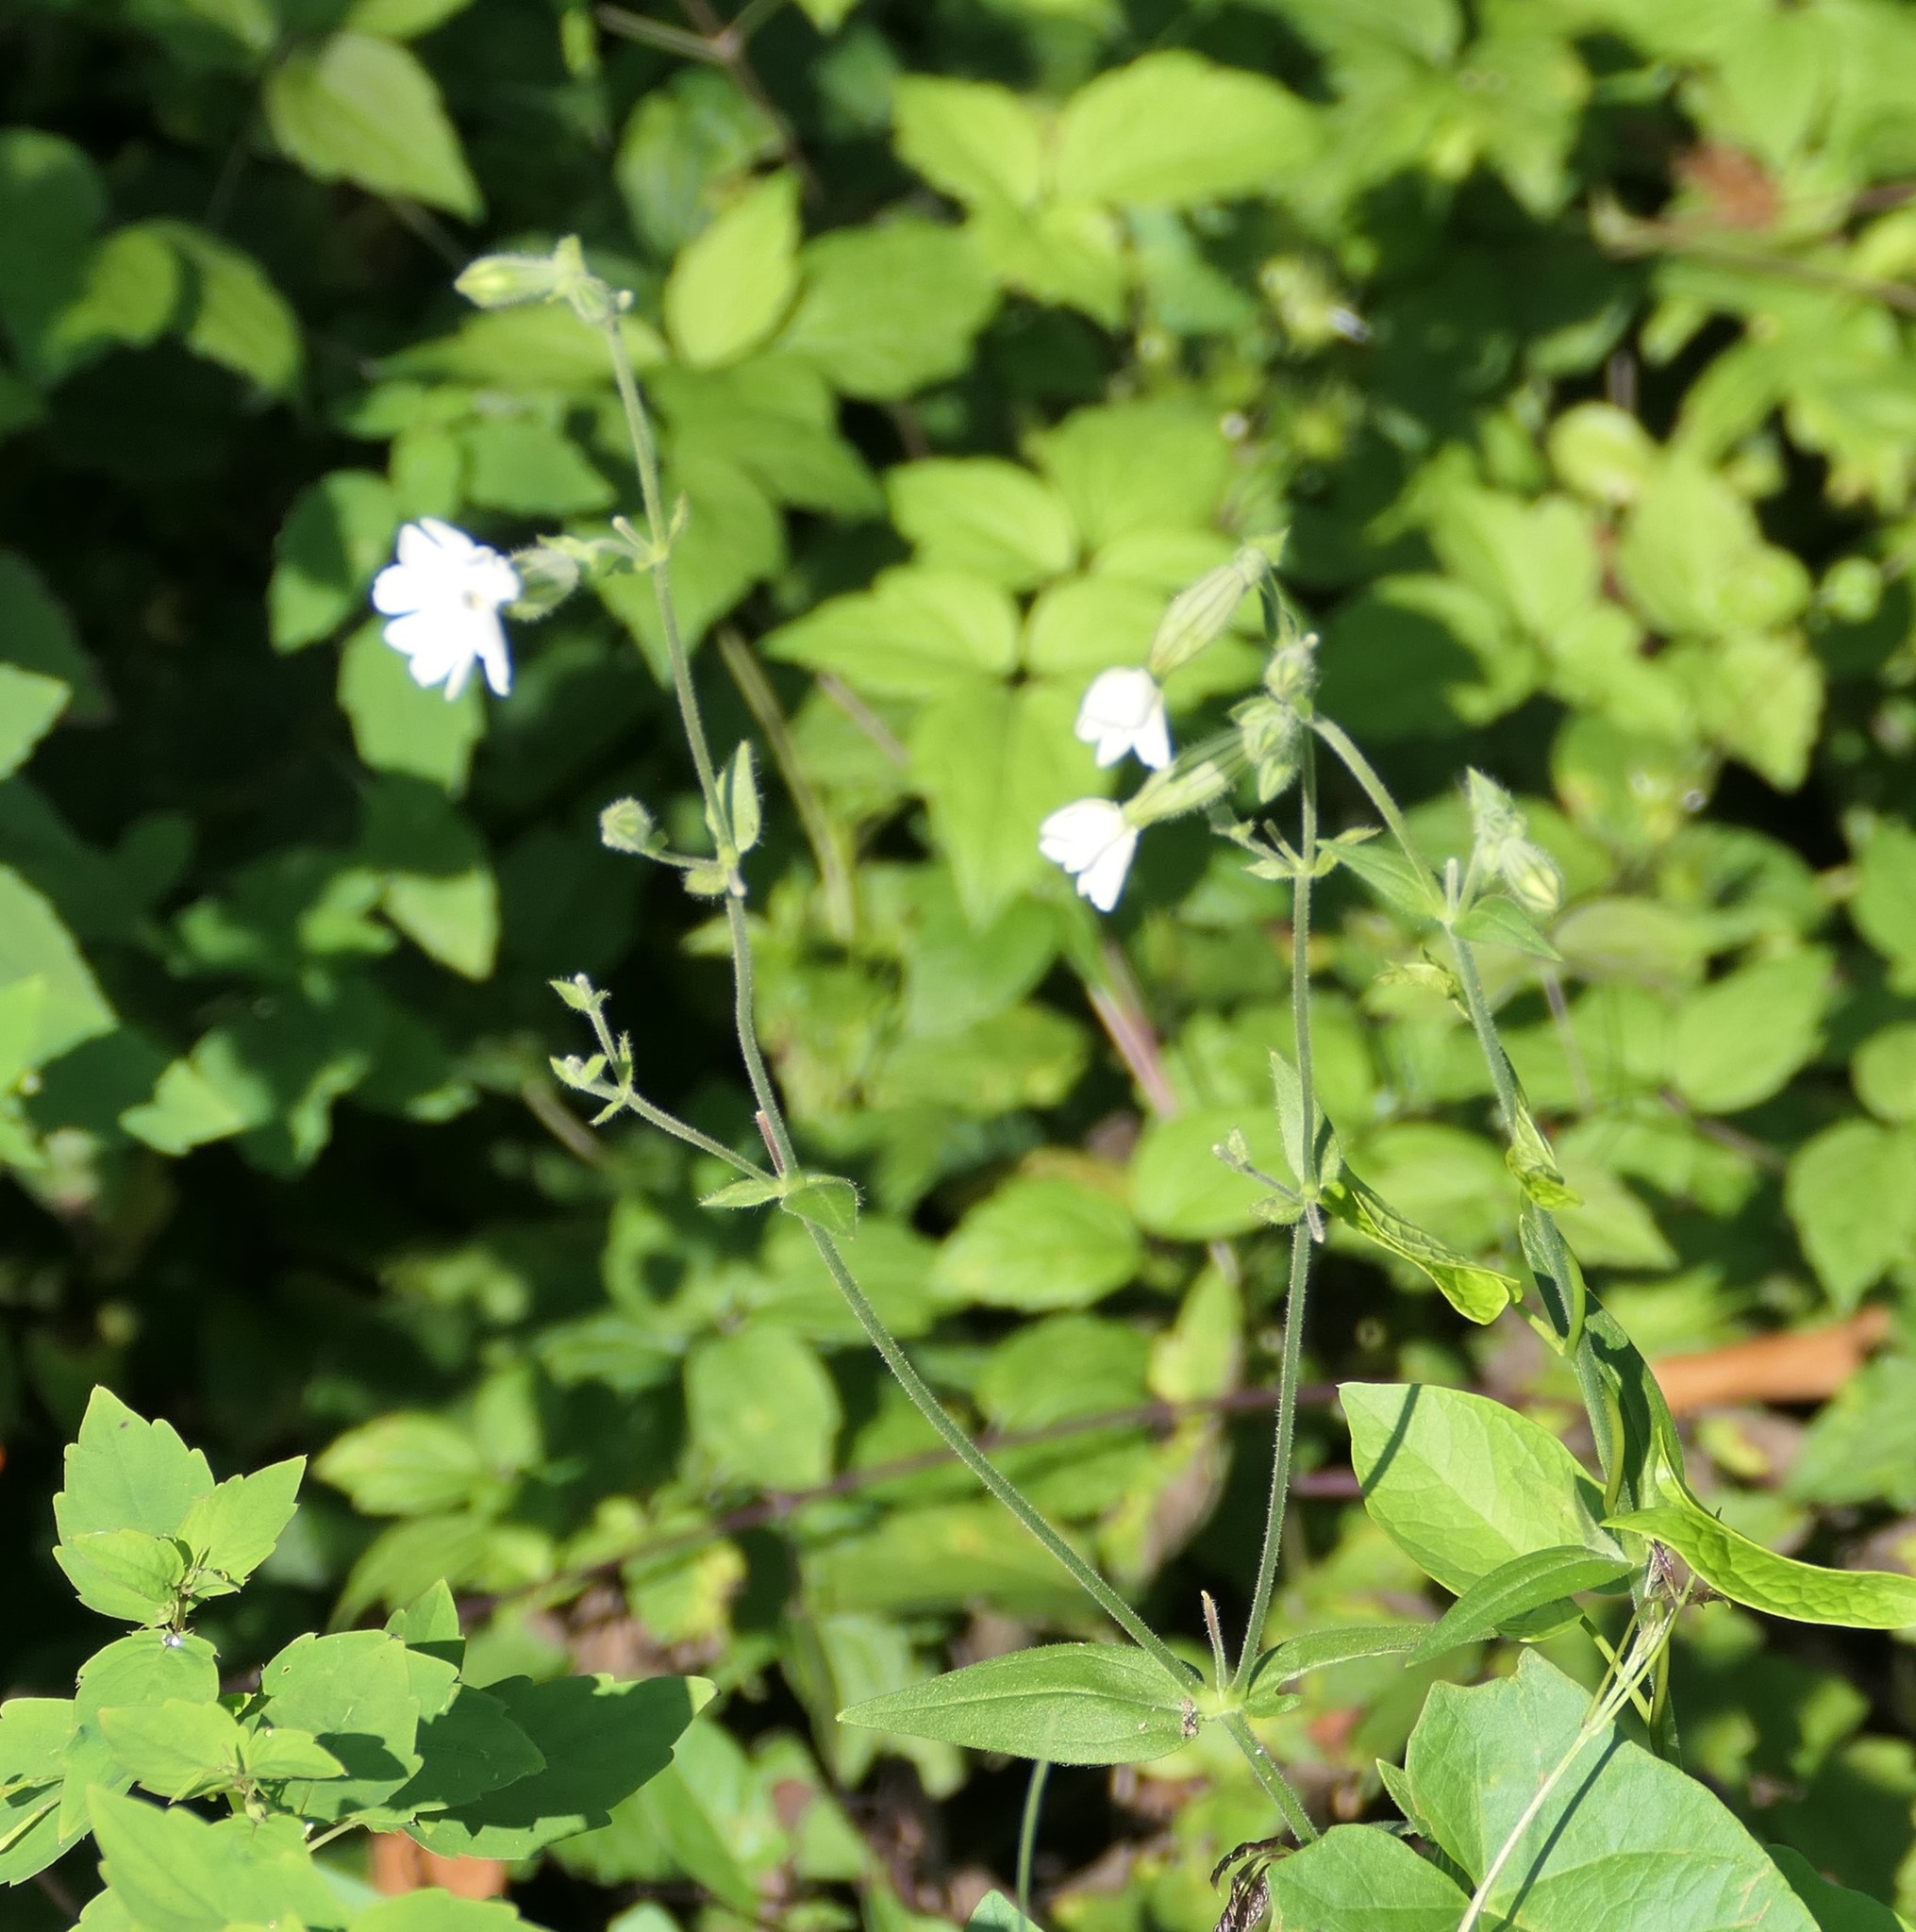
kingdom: Plantae
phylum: Tracheophyta
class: Magnoliopsida
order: Caryophyllales
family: Caryophyllaceae
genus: Silene
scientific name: Silene latifolia
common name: White campion
